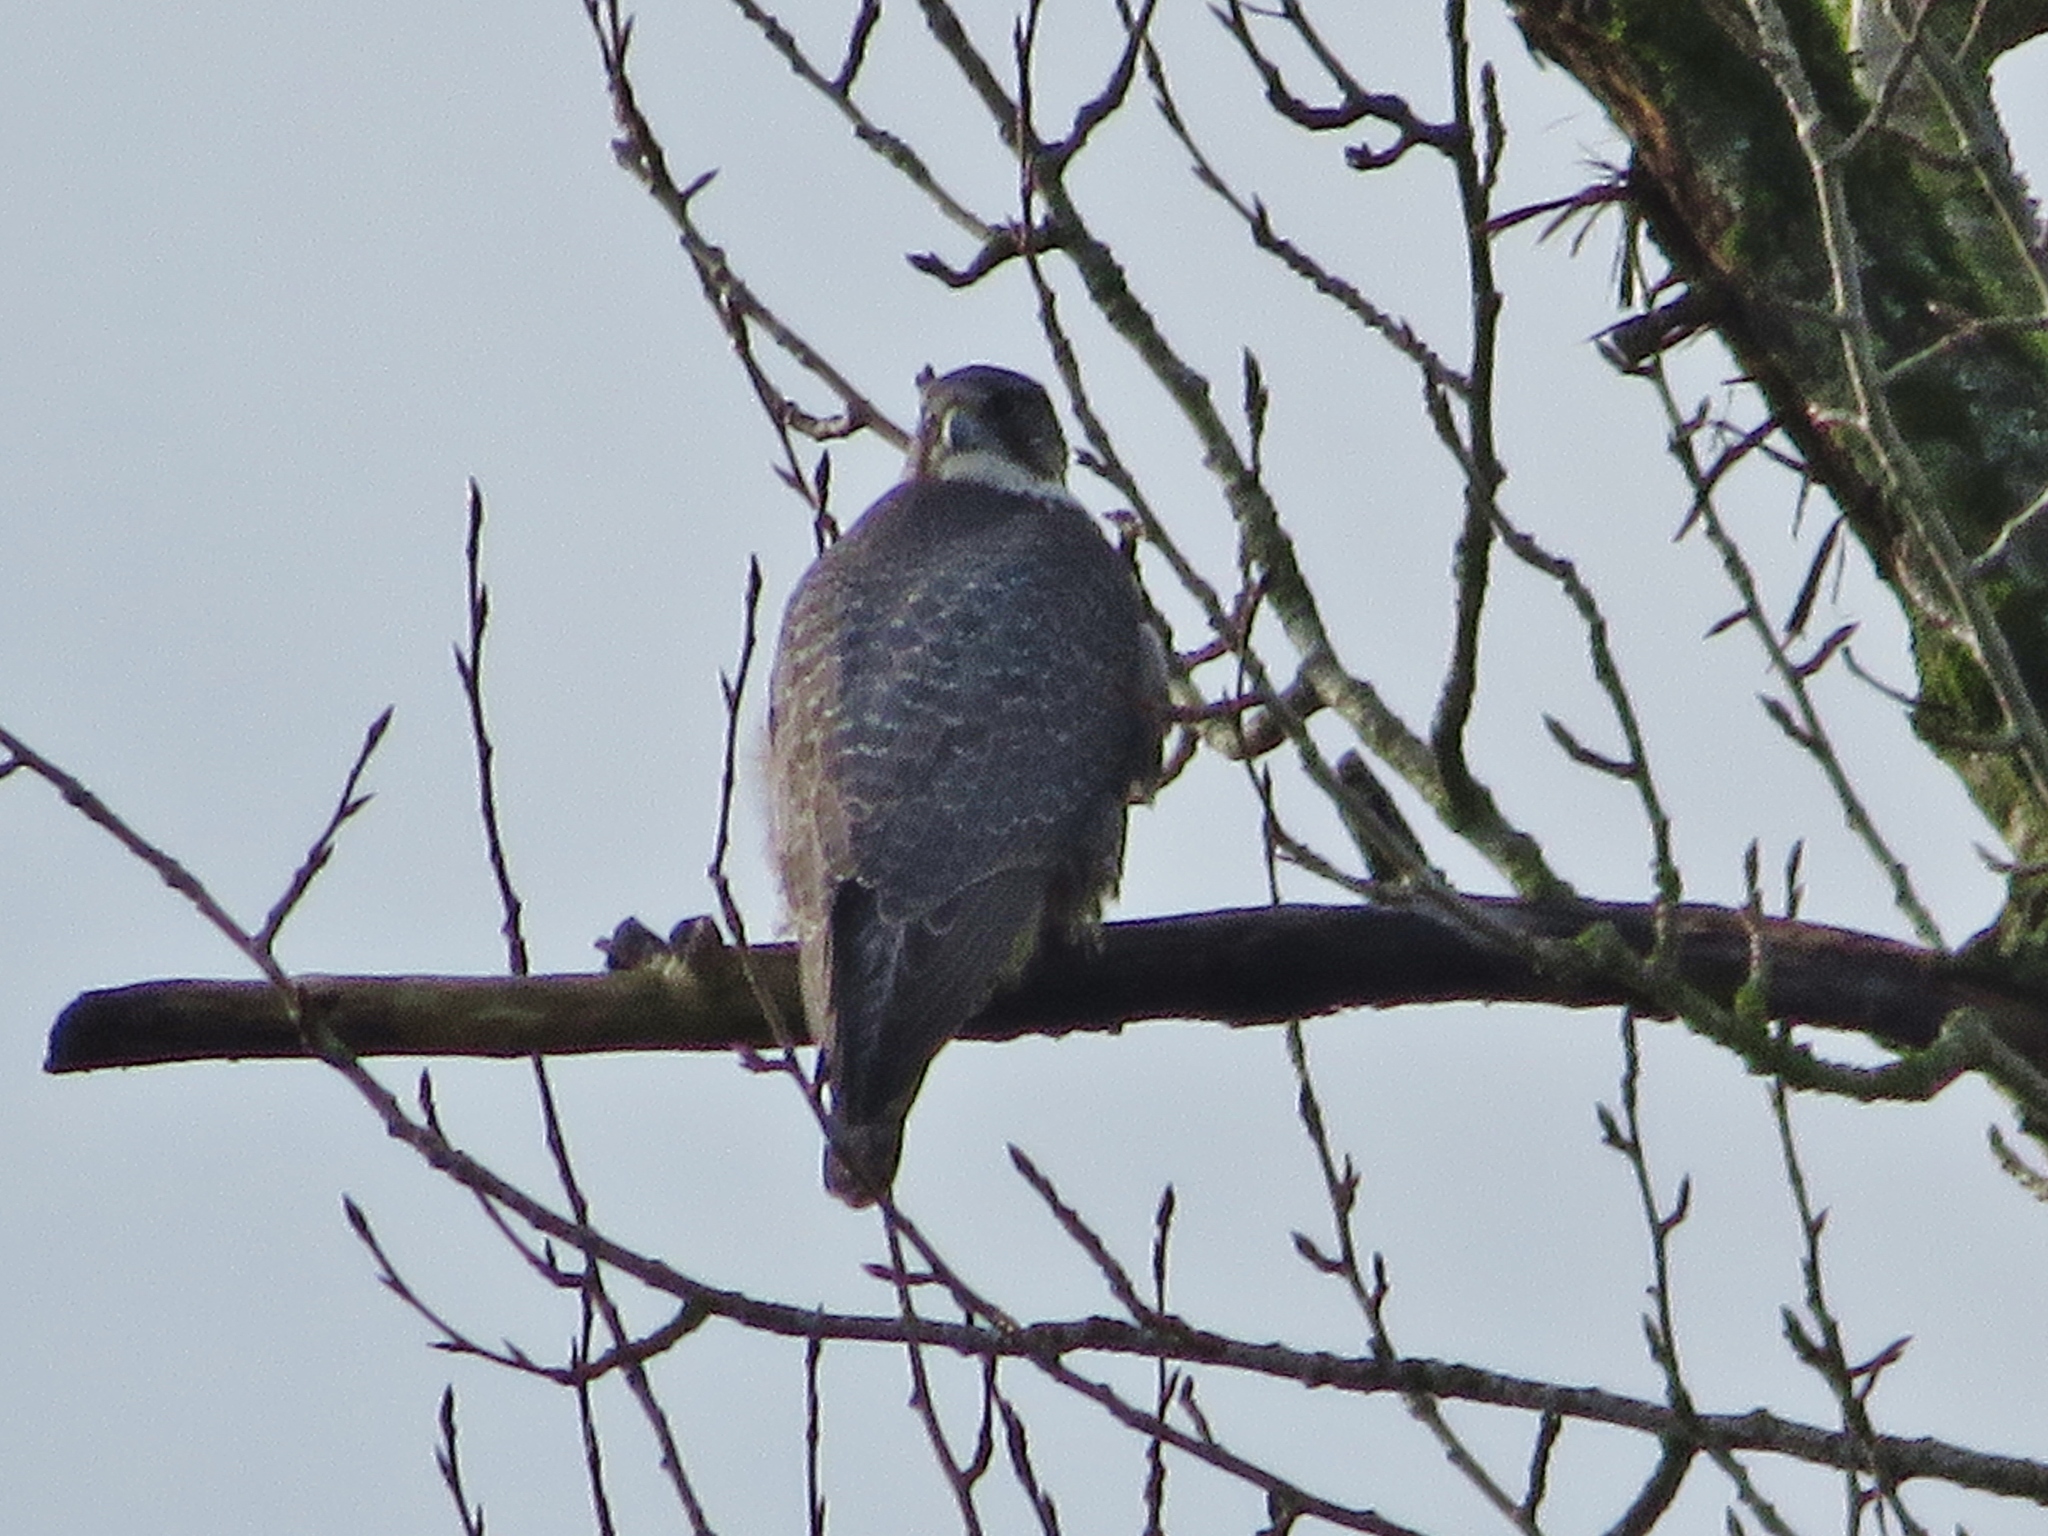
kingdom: Animalia
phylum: Chordata
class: Aves
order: Falconiformes
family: Falconidae
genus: Falco
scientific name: Falco rusticolus
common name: Gyrfalcon
